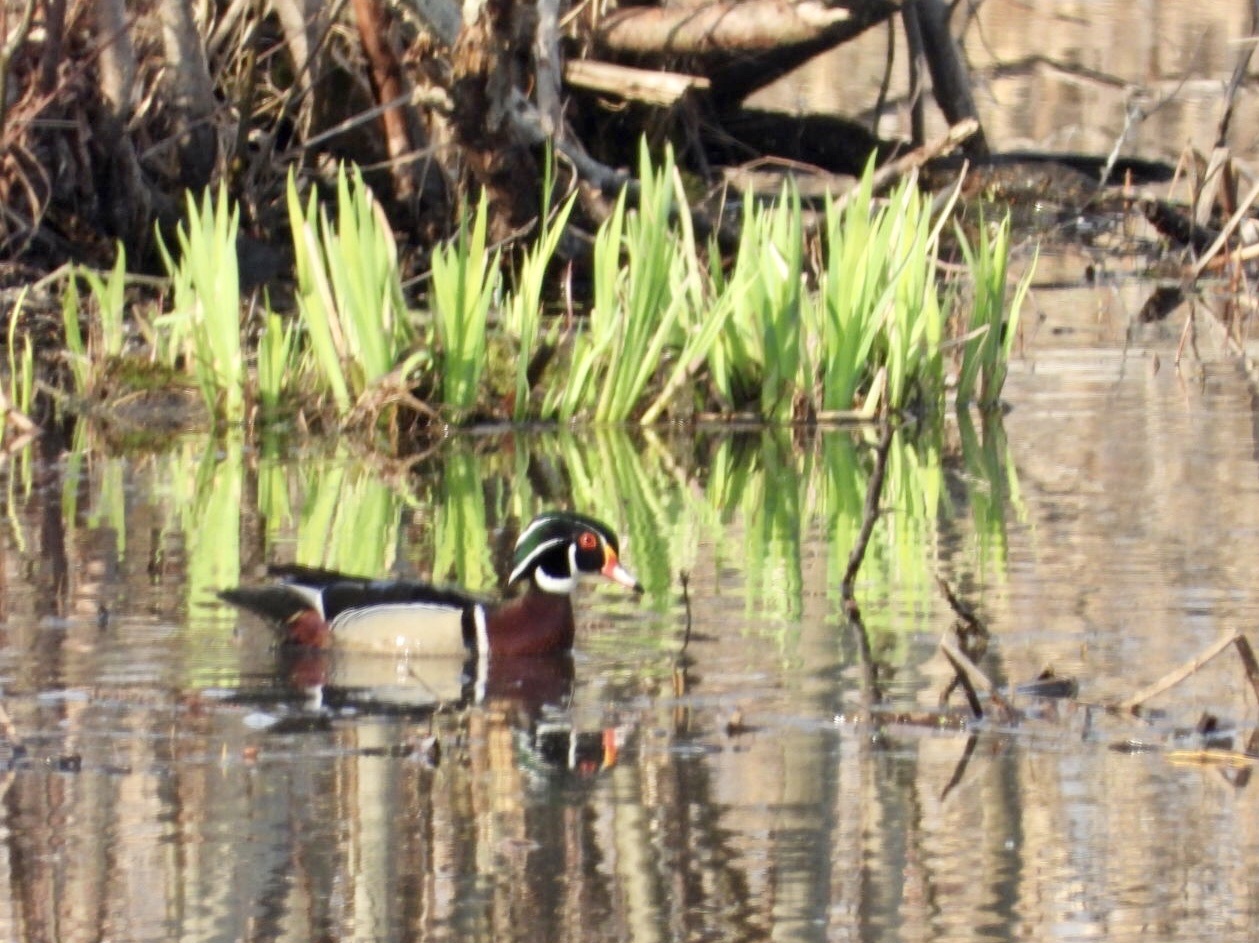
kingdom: Animalia
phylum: Chordata
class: Aves
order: Anseriformes
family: Anatidae
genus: Aix
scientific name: Aix sponsa
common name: Wood duck
